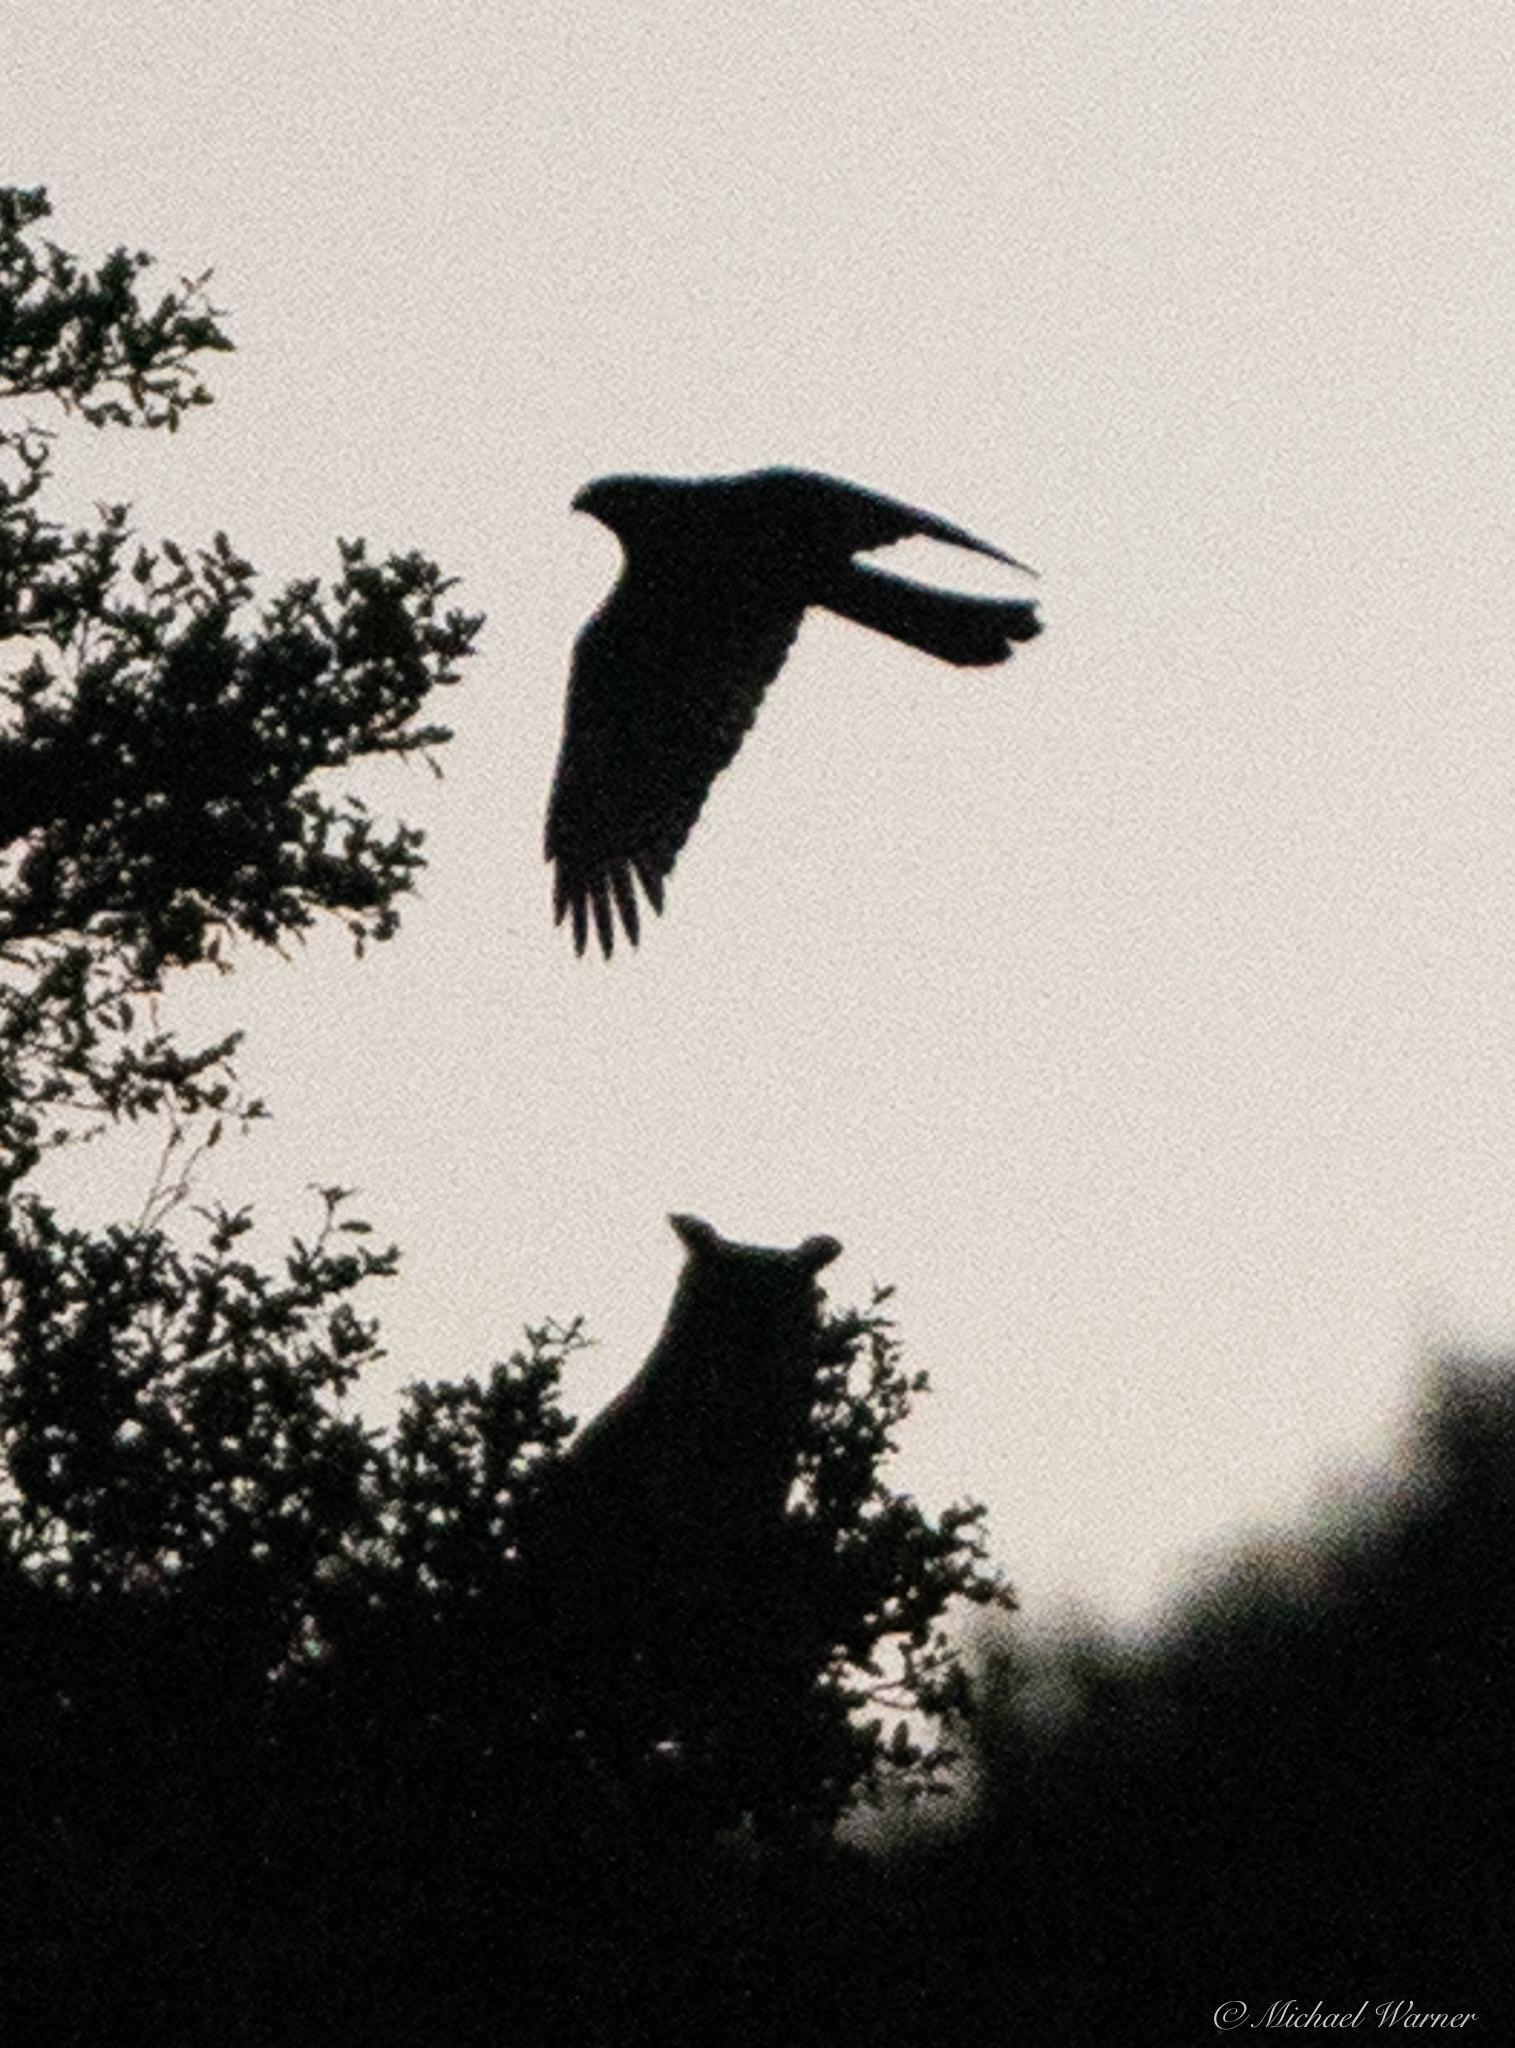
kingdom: Animalia
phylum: Chordata
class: Aves
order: Strigiformes
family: Strigidae
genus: Bubo
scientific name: Bubo virginianus
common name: Great horned owl
